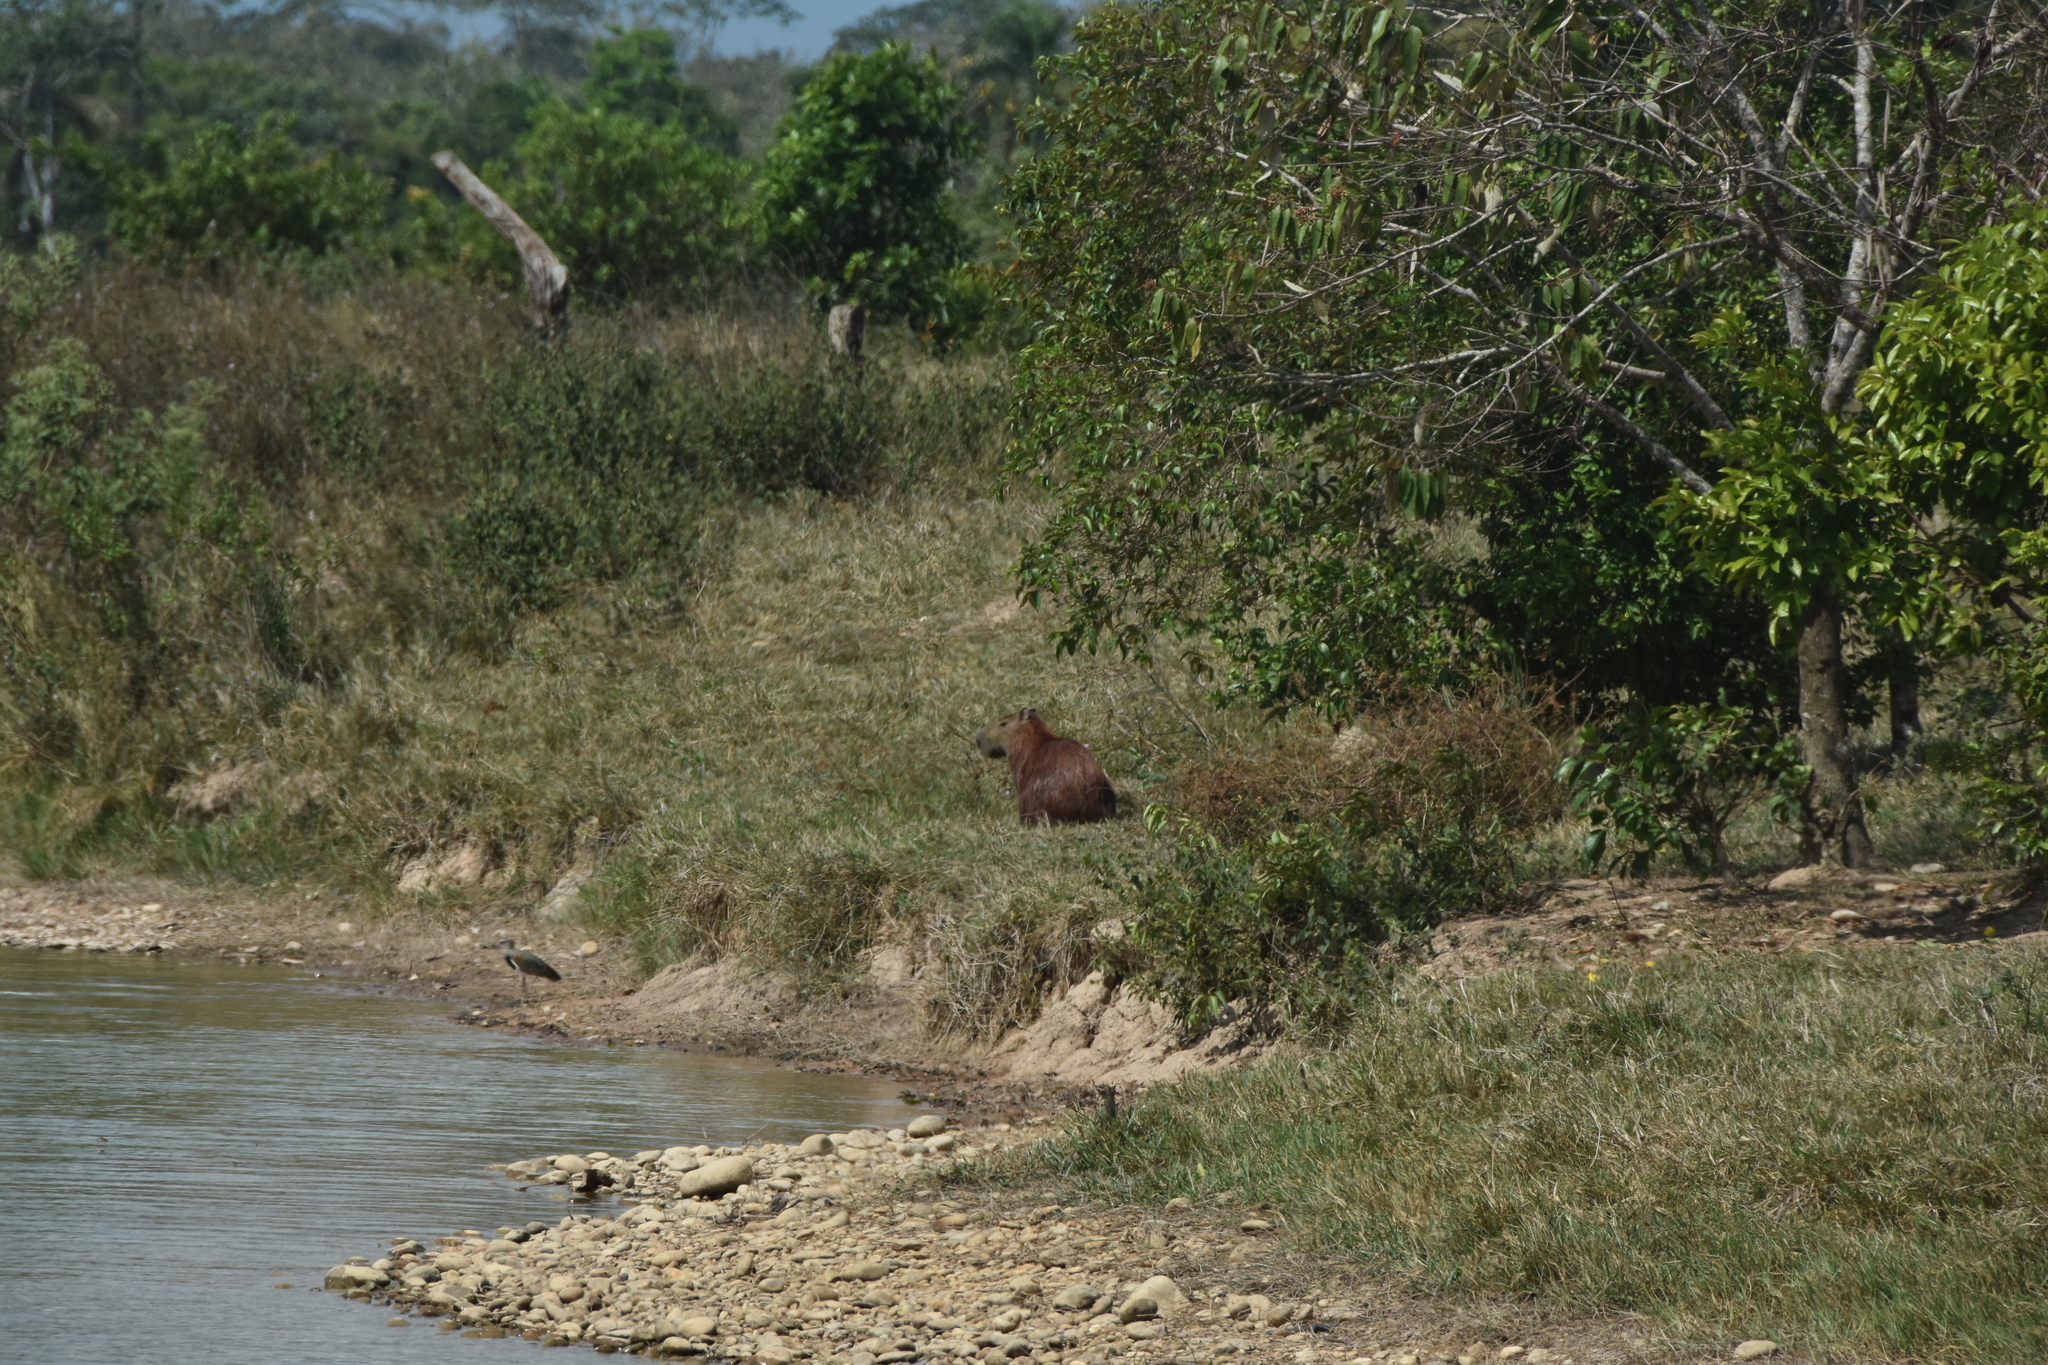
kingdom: Animalia
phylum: Chordata
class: Mammalia
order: Rodentia
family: Caviidae
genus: Hydrochoerus
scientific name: Hydrochoerus hydrochaeris
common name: Capybara
